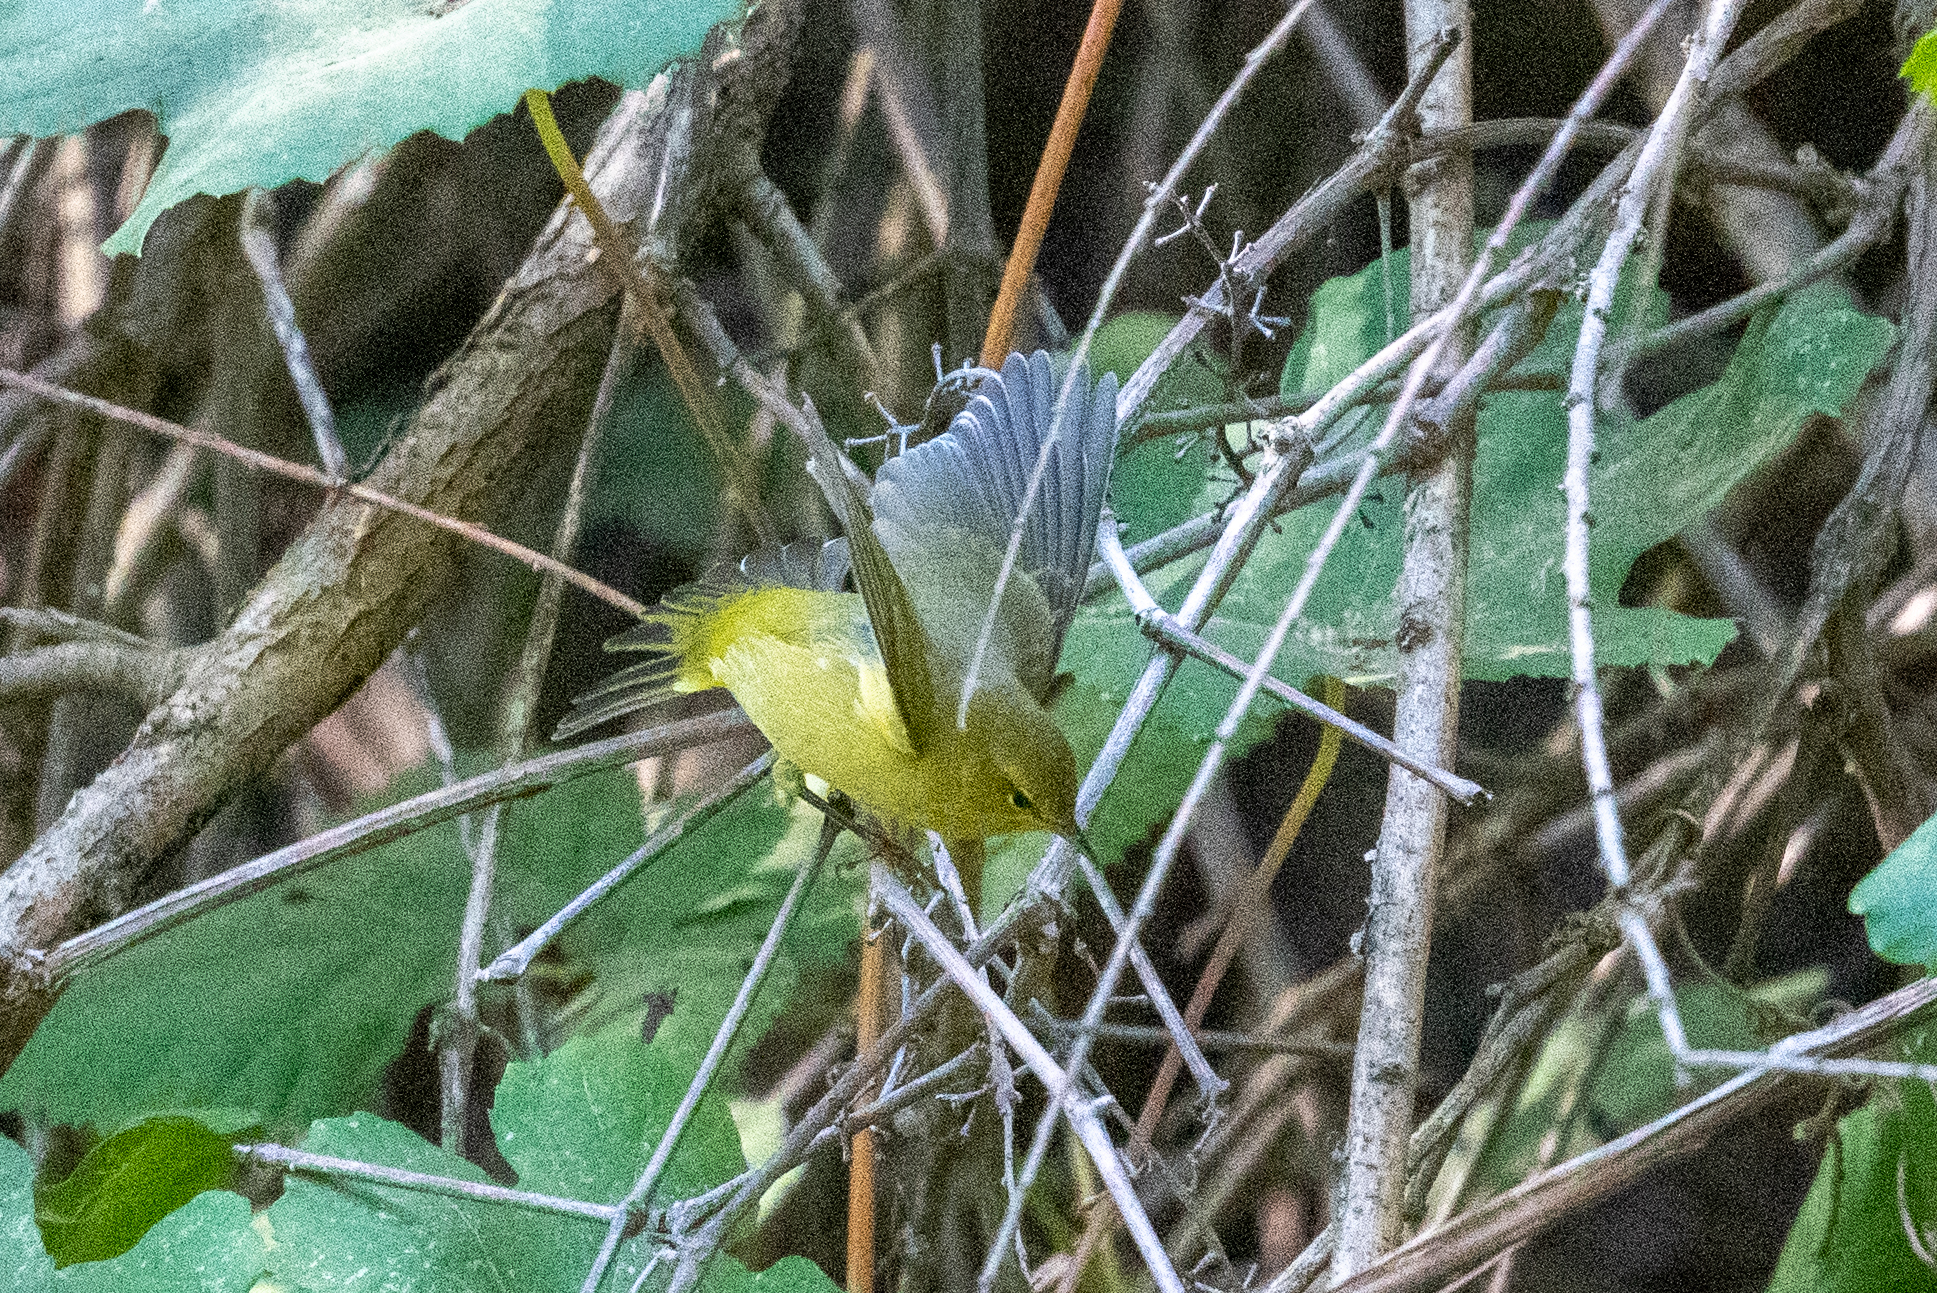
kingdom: Animalia
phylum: Chordata
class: Aves
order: Passeriformes
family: Parulidae
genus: Leiothlypis
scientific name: Leiothlypis celata
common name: Orange-crowned warbler
